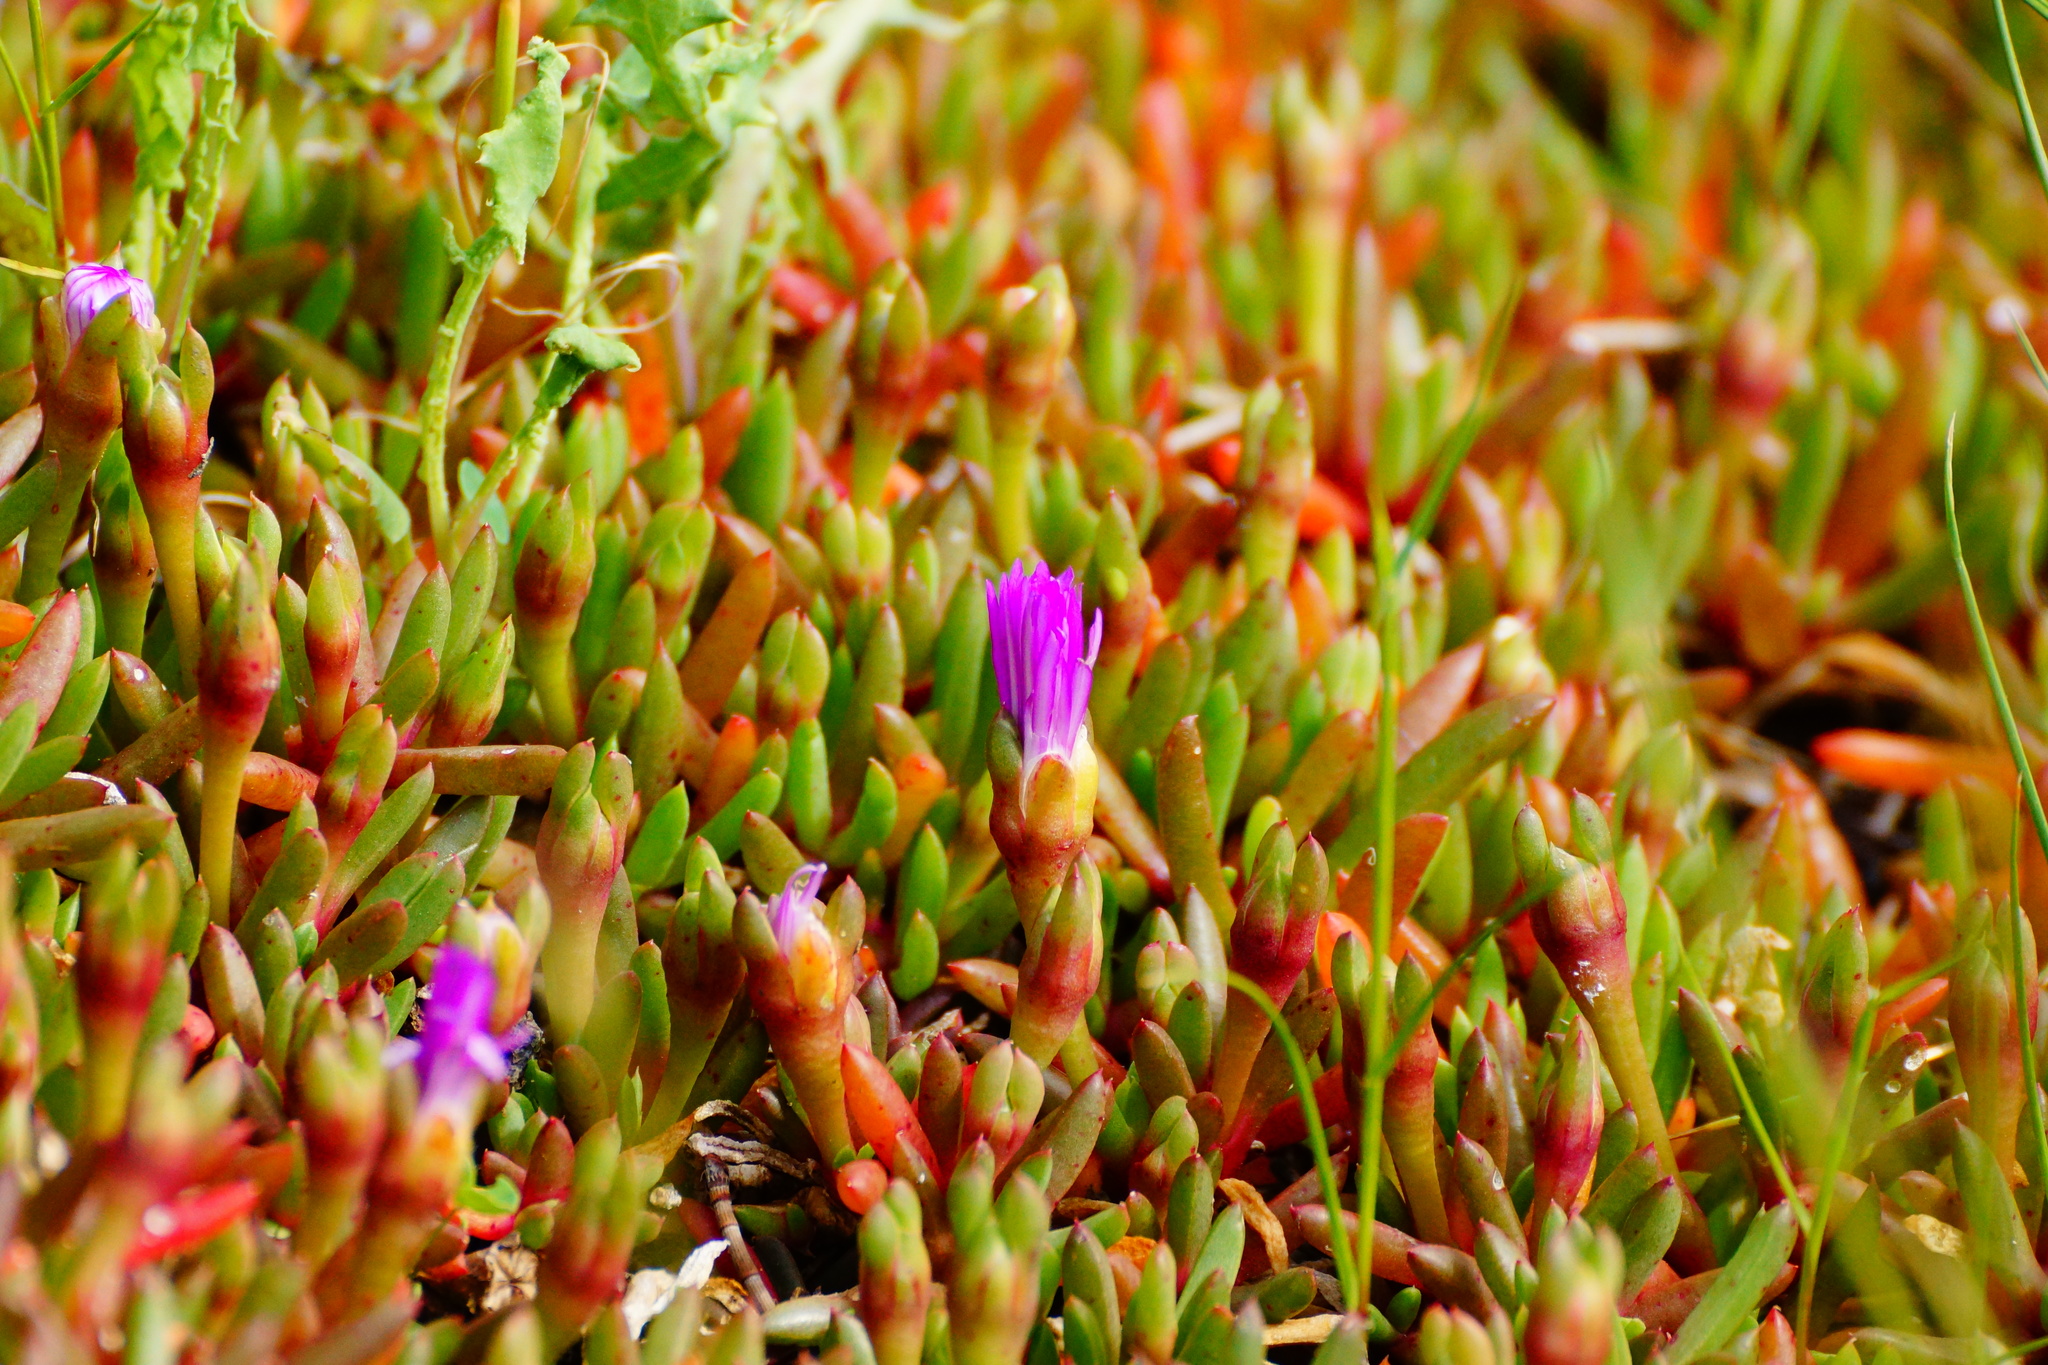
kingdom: Plantae
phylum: Tracheophyta
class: Magnoliopsida
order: Caryophyllales
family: Aizoaceae
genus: Disphyma
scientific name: Disphyma clavellatum
